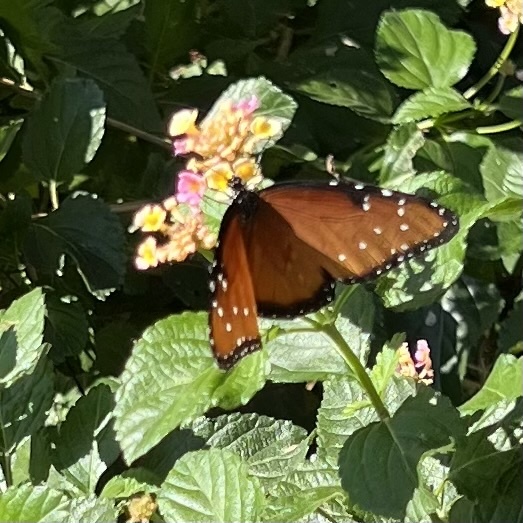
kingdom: Animalia
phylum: Arthropoda
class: Insecta
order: Lepidoptera
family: Nymphalidae
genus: Danaus
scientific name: Danaus gilippus
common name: Queen
